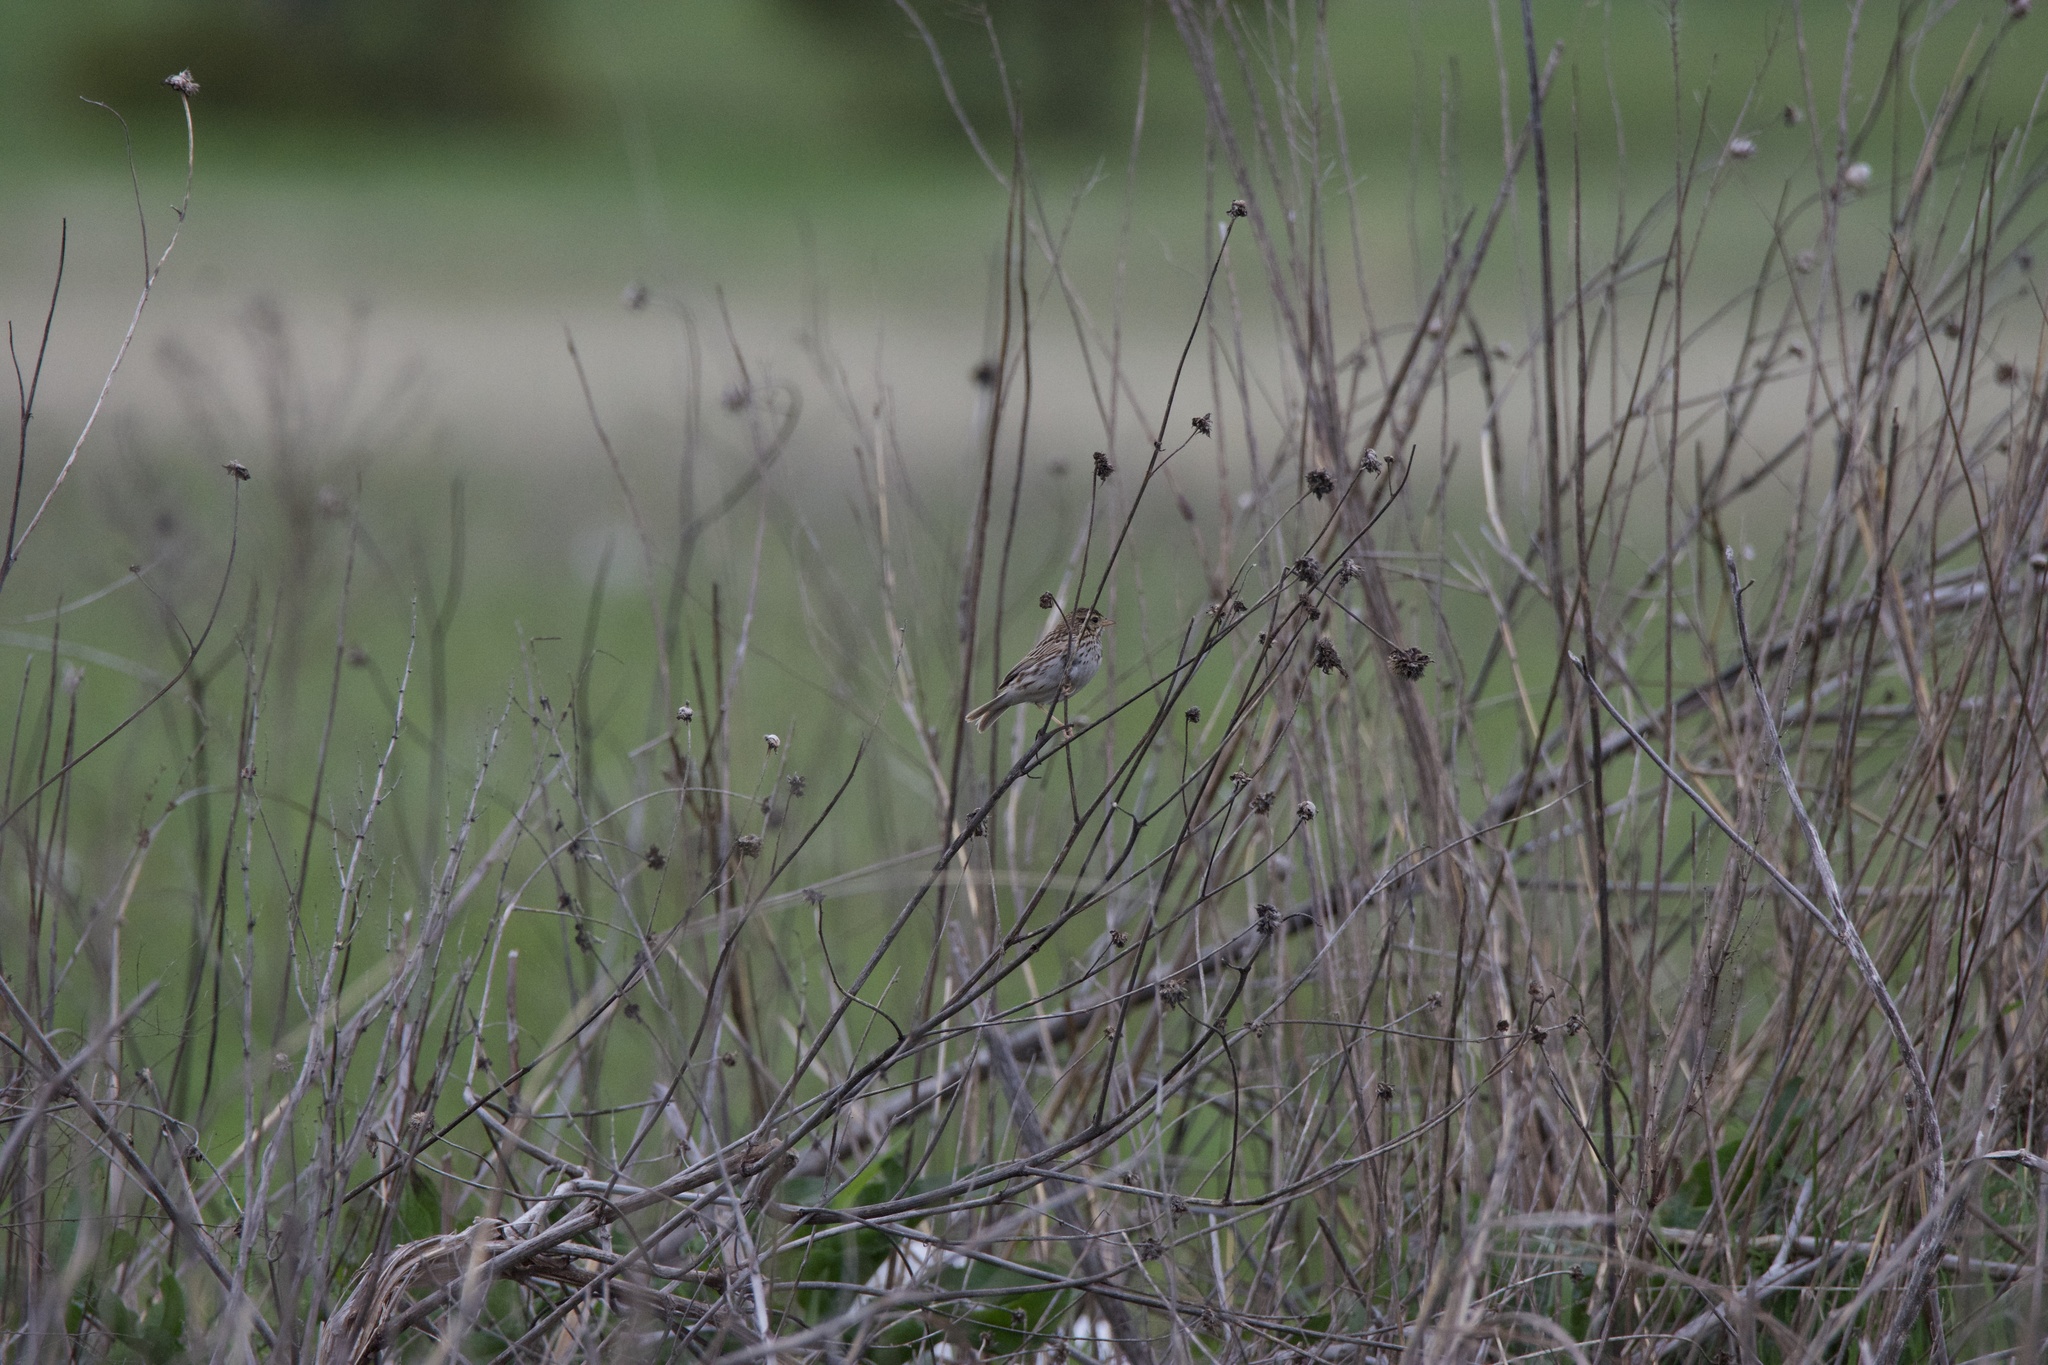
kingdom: Animalia
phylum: Chordata
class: Aves
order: Passeriformes
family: Passerellidae
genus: Passerculus
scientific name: Passerculus sandwichensis
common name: Savannah sparrow
